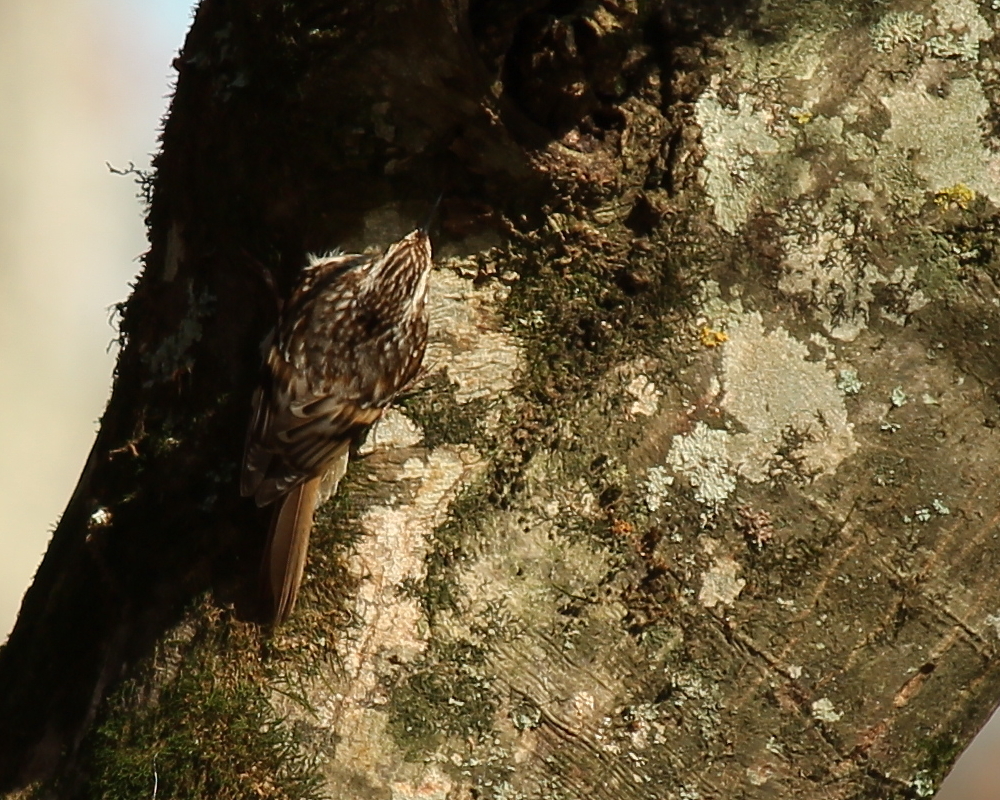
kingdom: Animalia
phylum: Chordata
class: Aves
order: Passeriformes
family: Certhiidae
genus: Certhia
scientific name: Certhia americana
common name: Brown creeper
